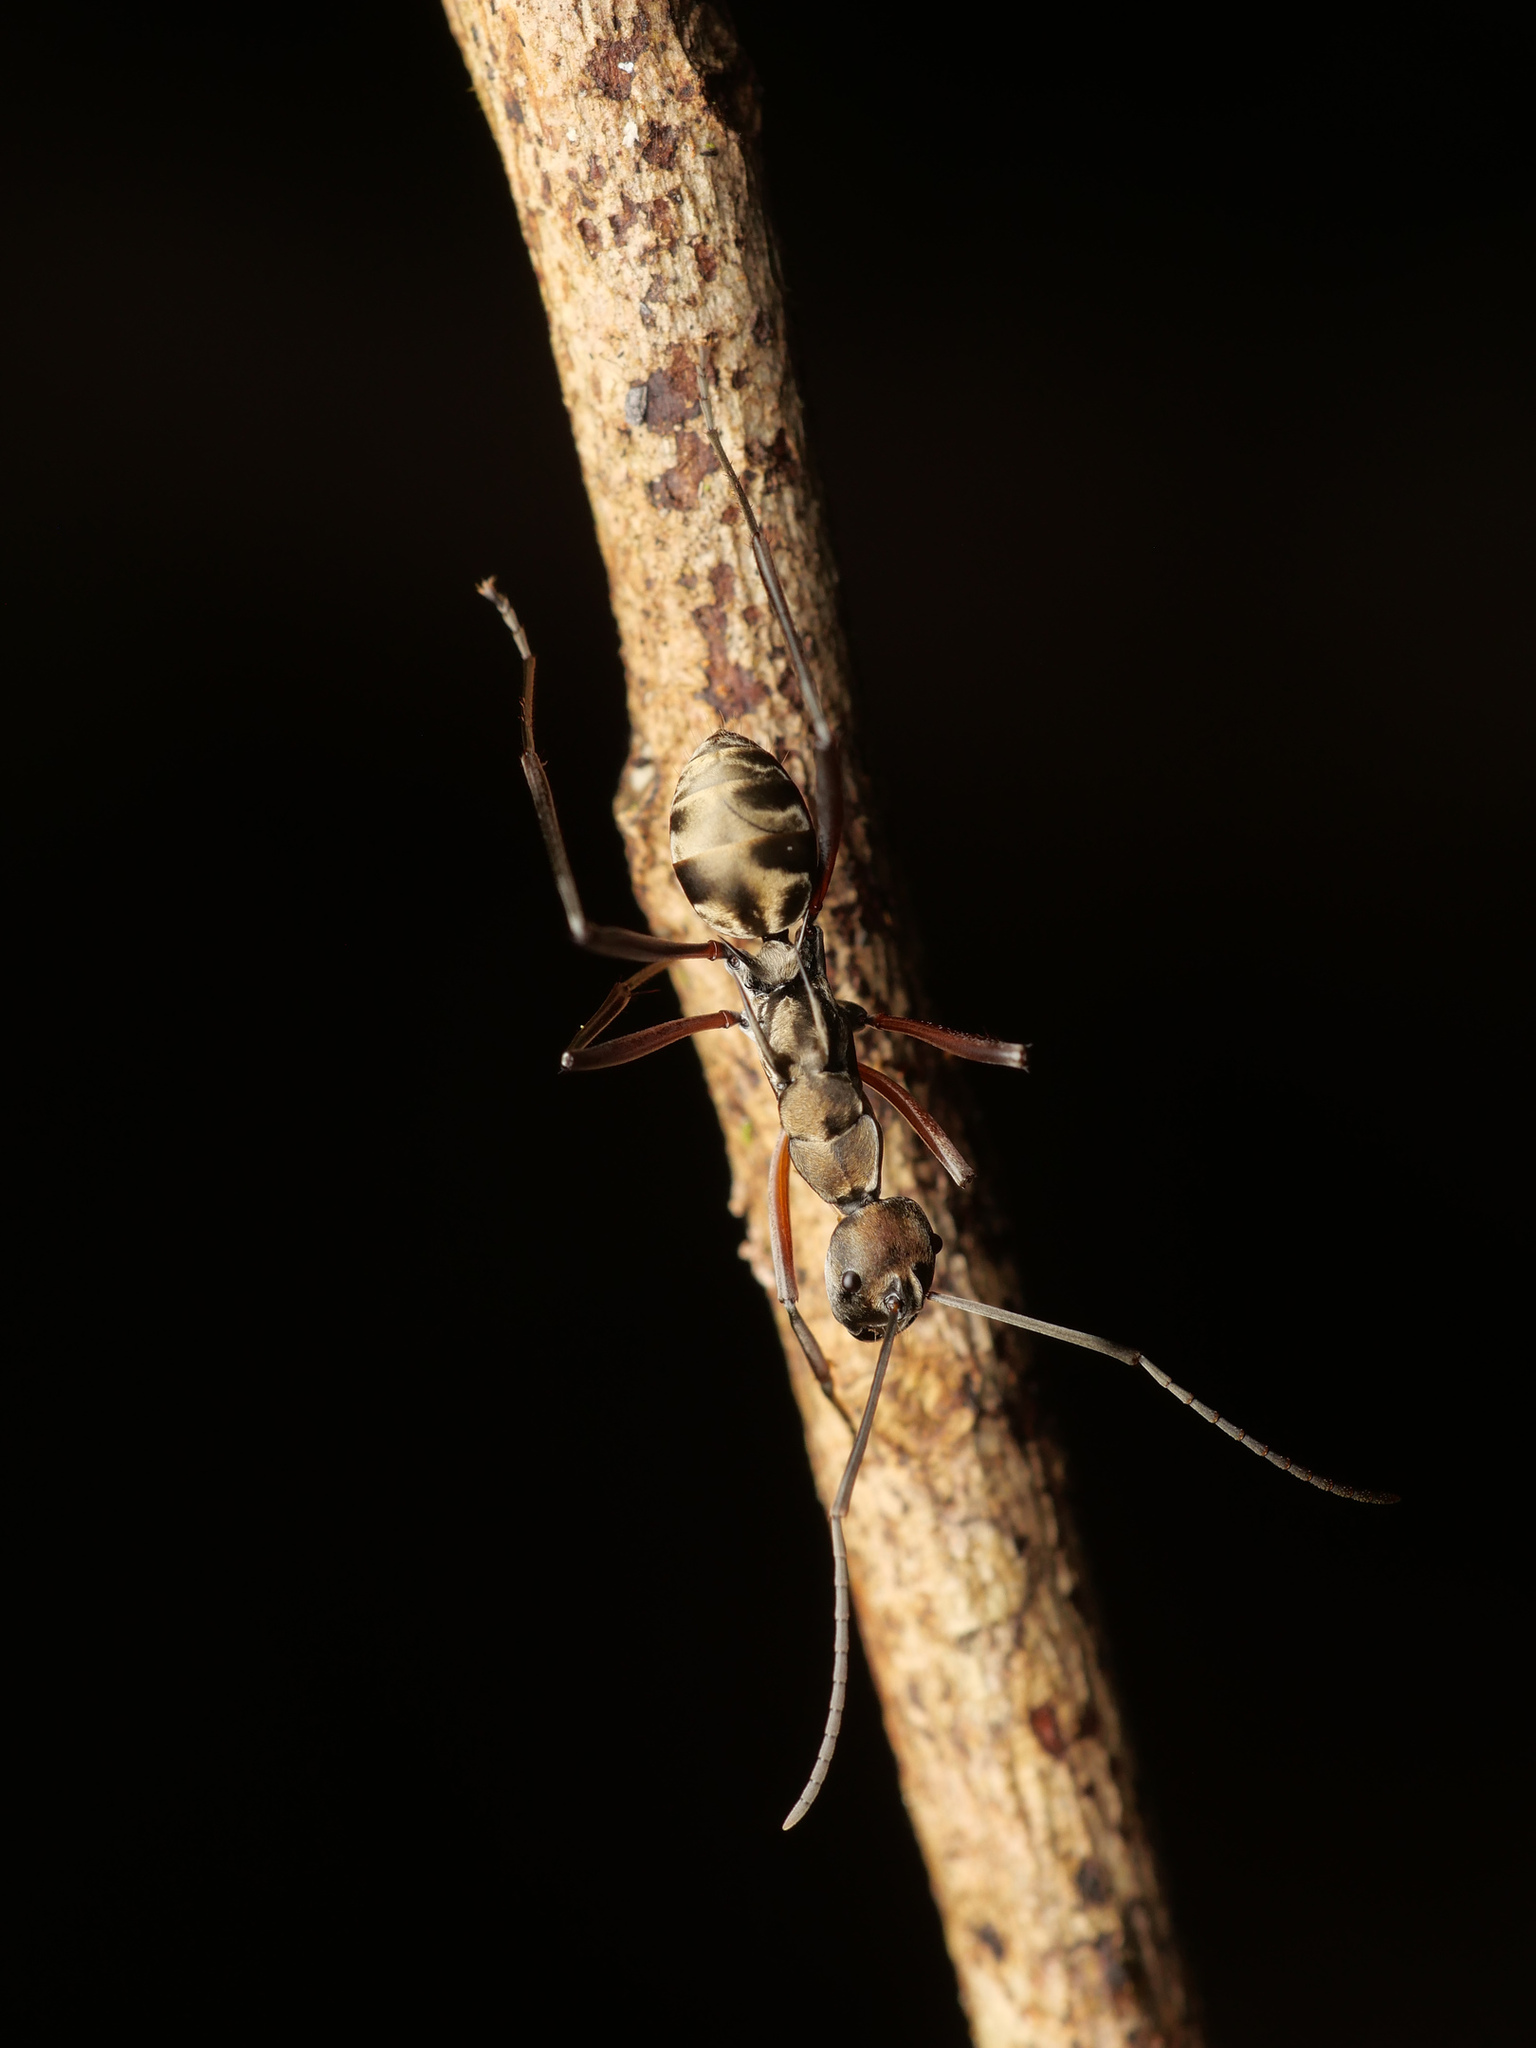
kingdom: Animalia
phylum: Arthropoda
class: Insecta
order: Hymenoptera
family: Formicidae
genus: Polyrhachis
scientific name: Polyrhachis metella
